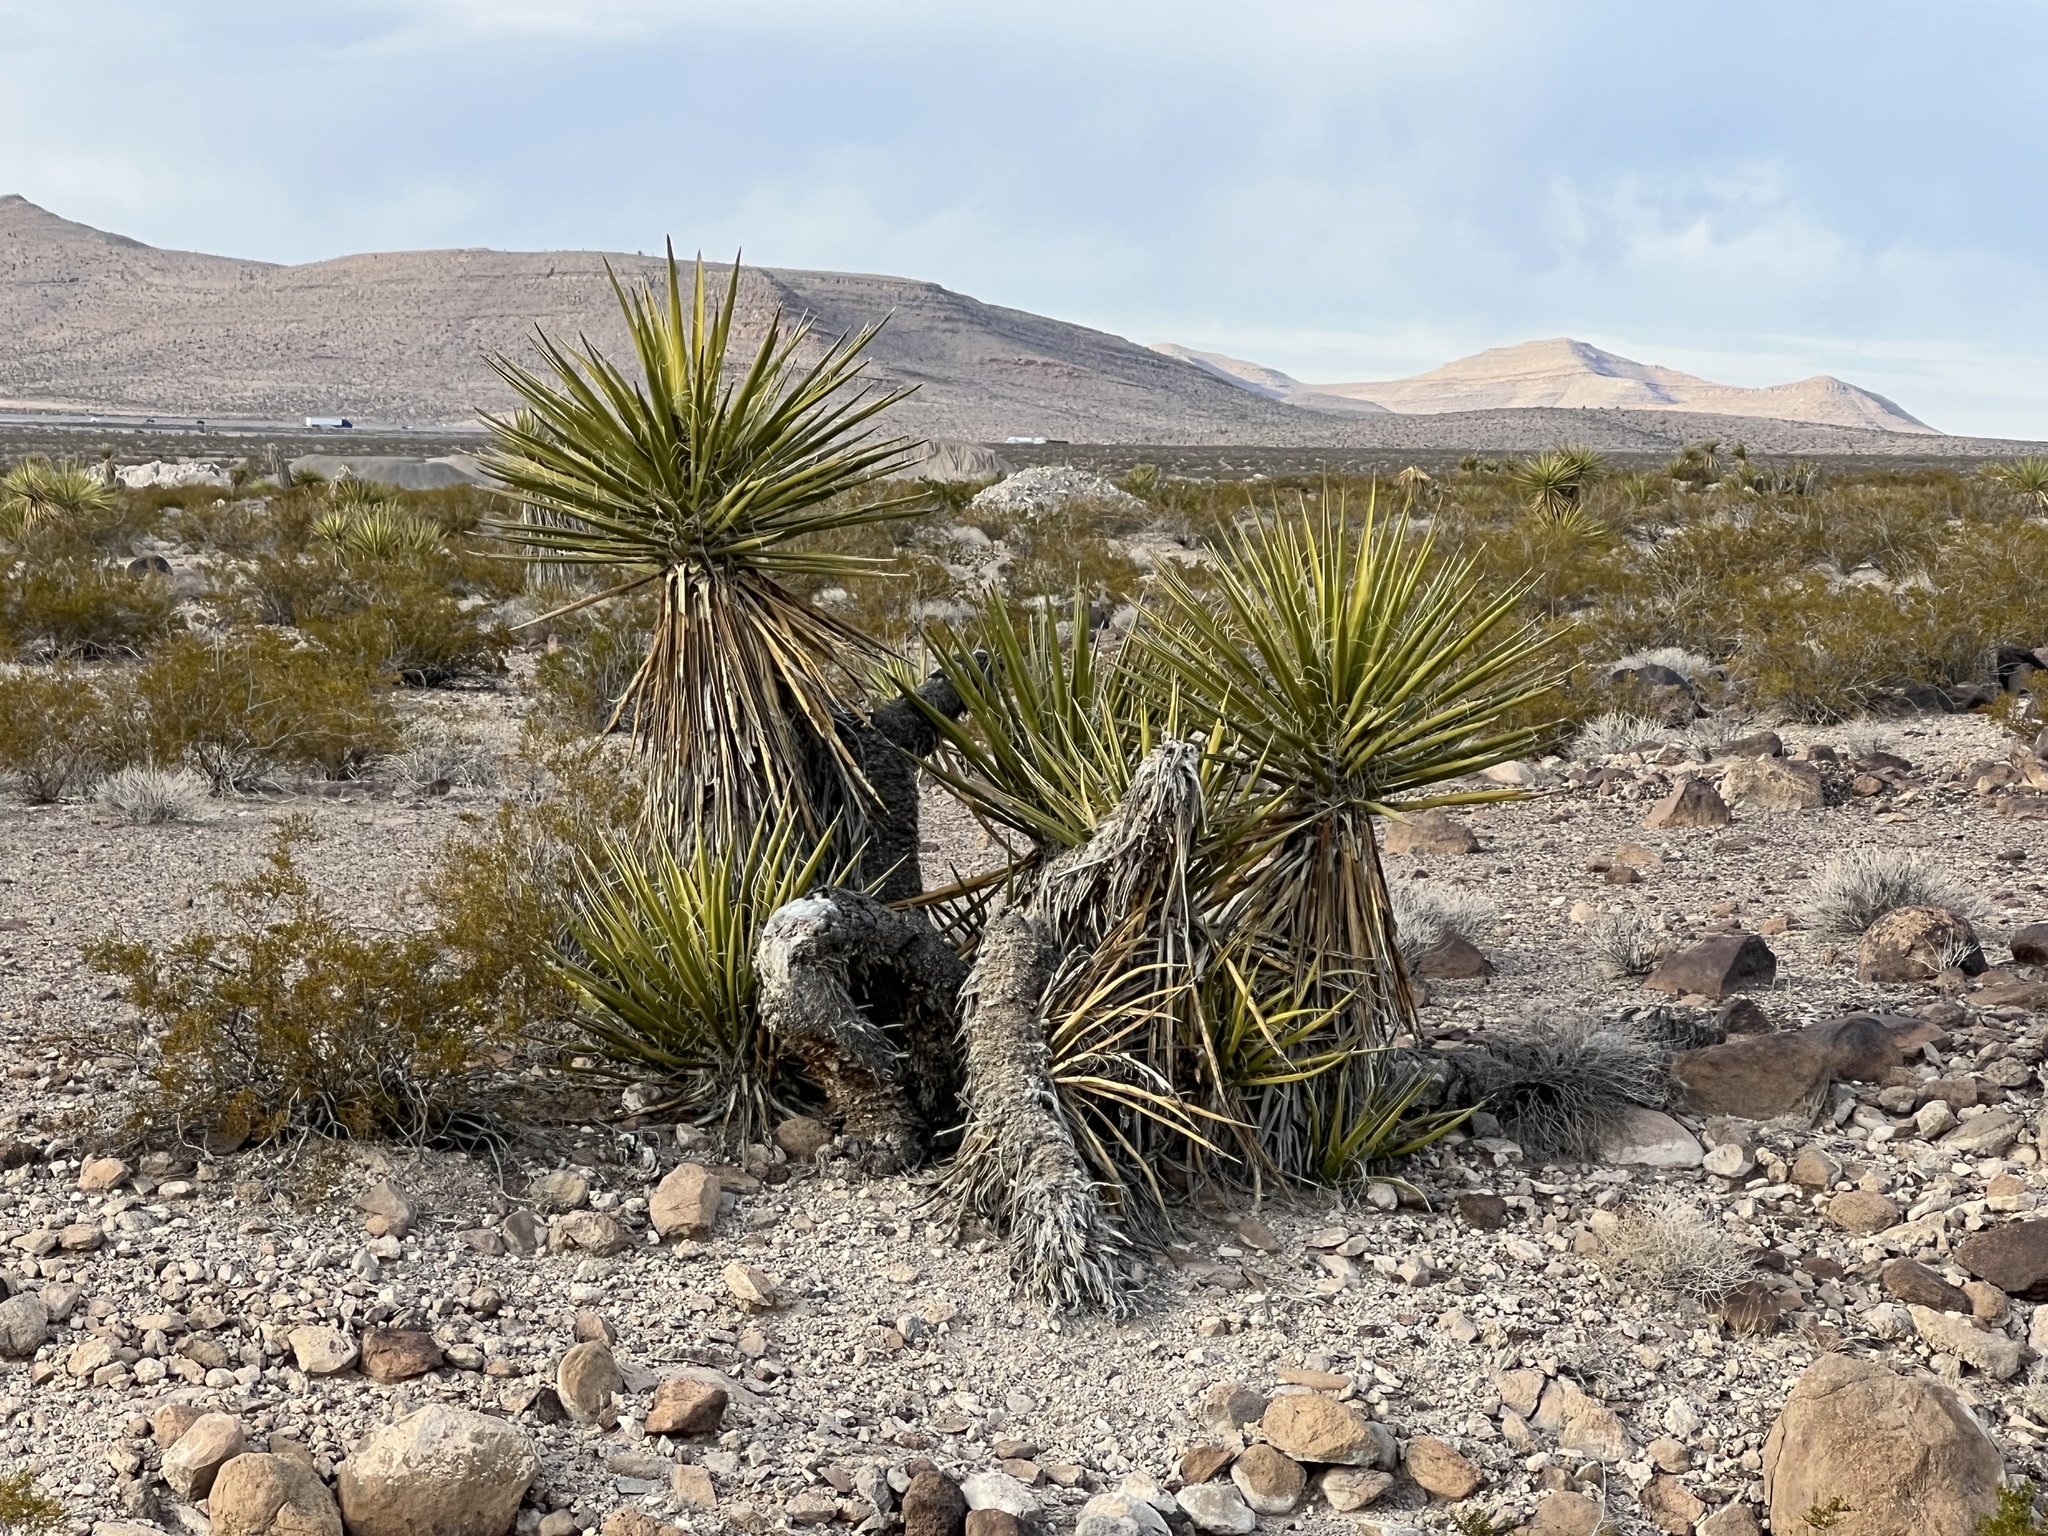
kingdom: Plantae
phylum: Tracheophyta
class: Liliopsida
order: Asparagales
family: Asparagaceae
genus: Yucca
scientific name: Yucca schidigera
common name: Mojave yucca
